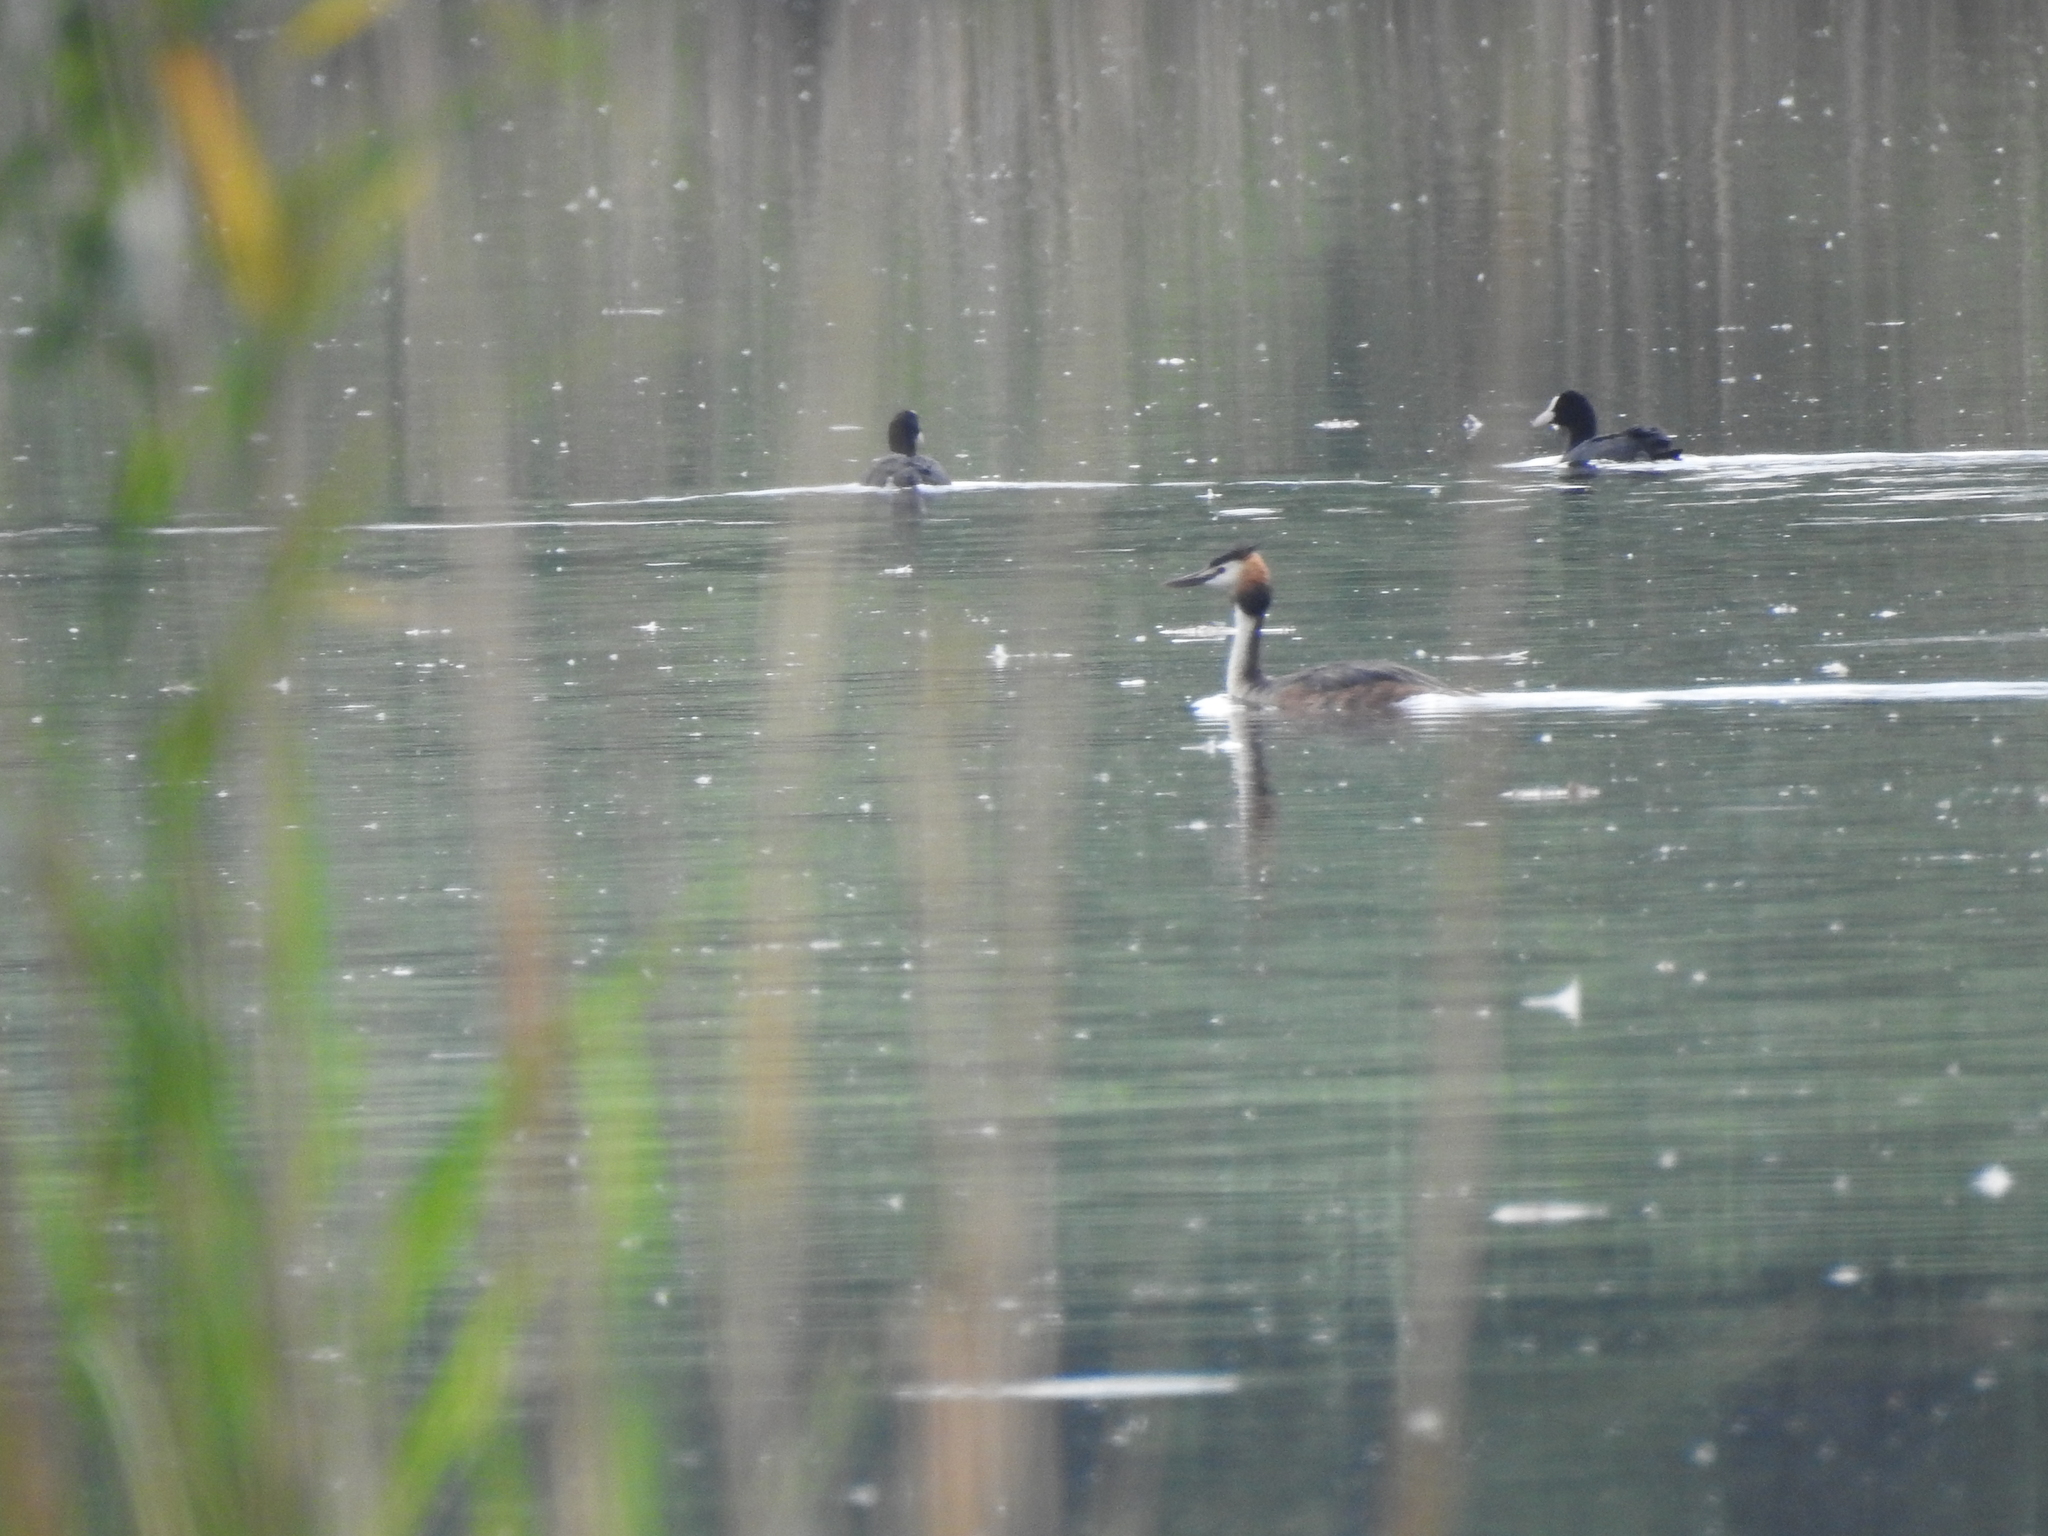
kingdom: Animalia
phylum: Chordata
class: Aves
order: Podicipediformes
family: Podicipedidae
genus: Podiceps
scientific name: Podiceps cristatus
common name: Great crested grebe
